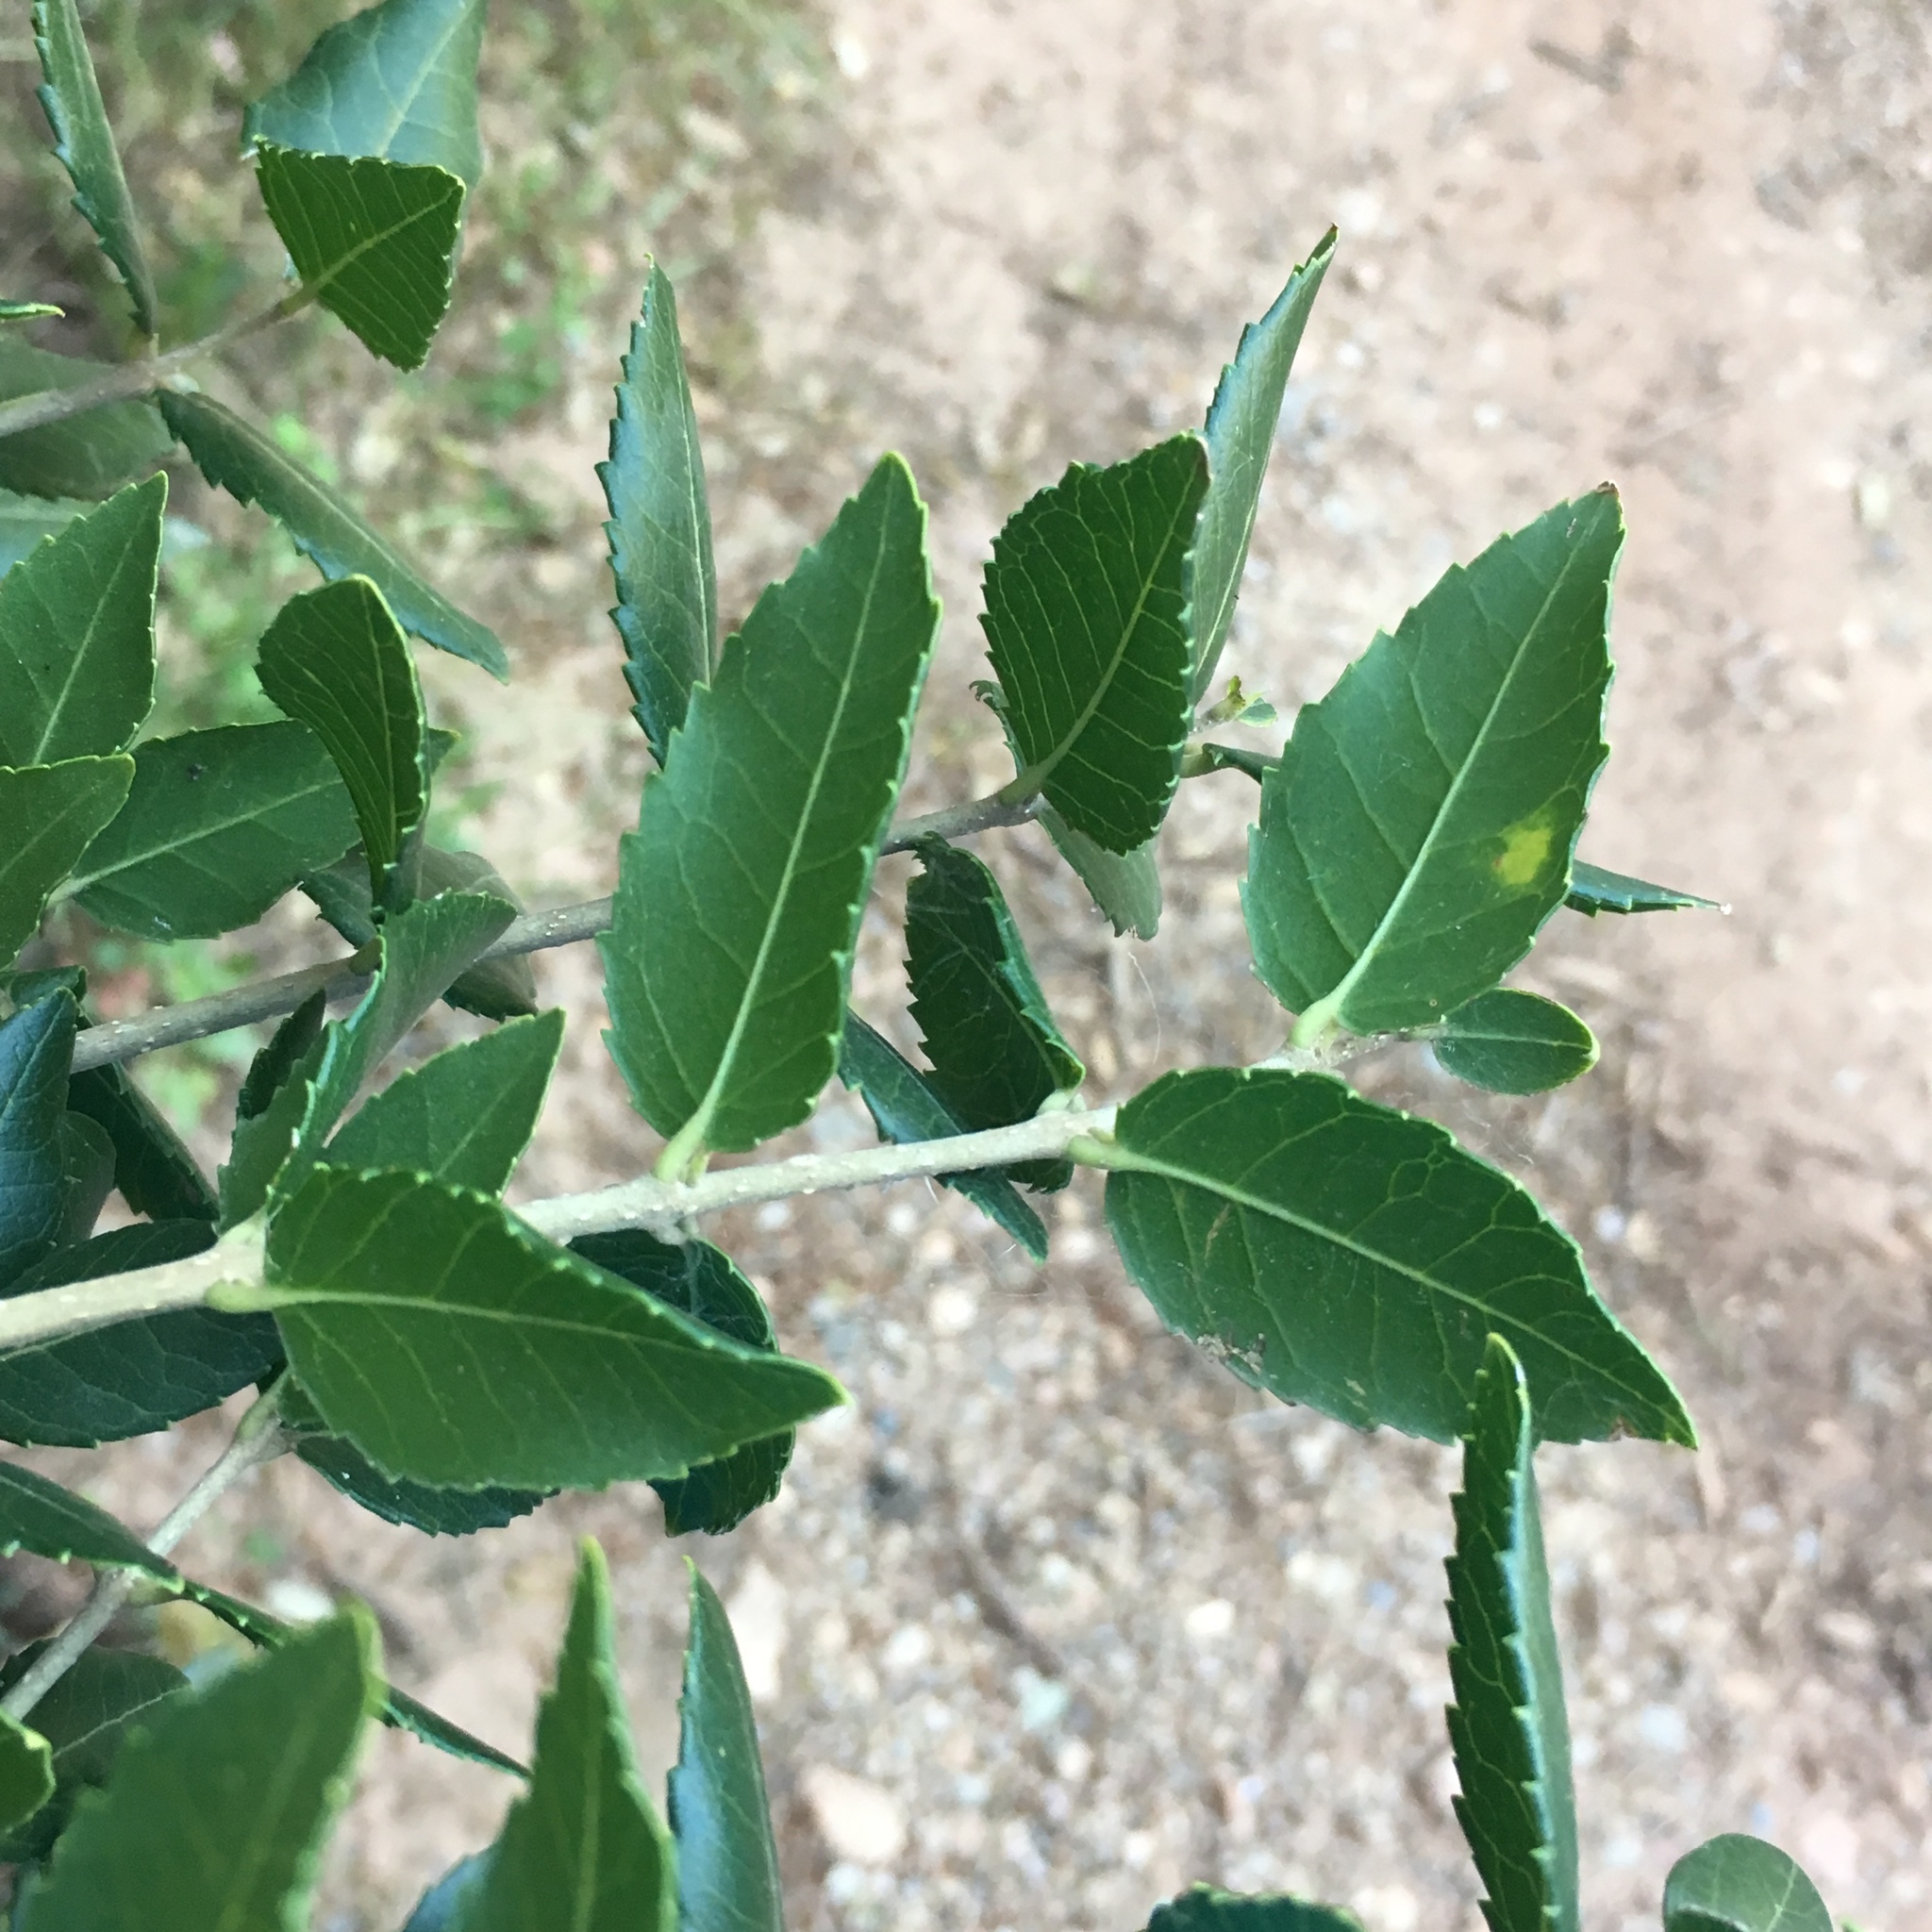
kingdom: Plantae
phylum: Tracheophyta
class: Magnoliopsida
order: Lamiales
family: Oleaceae
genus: Phillyrea
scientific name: Phillyrea latifolia
